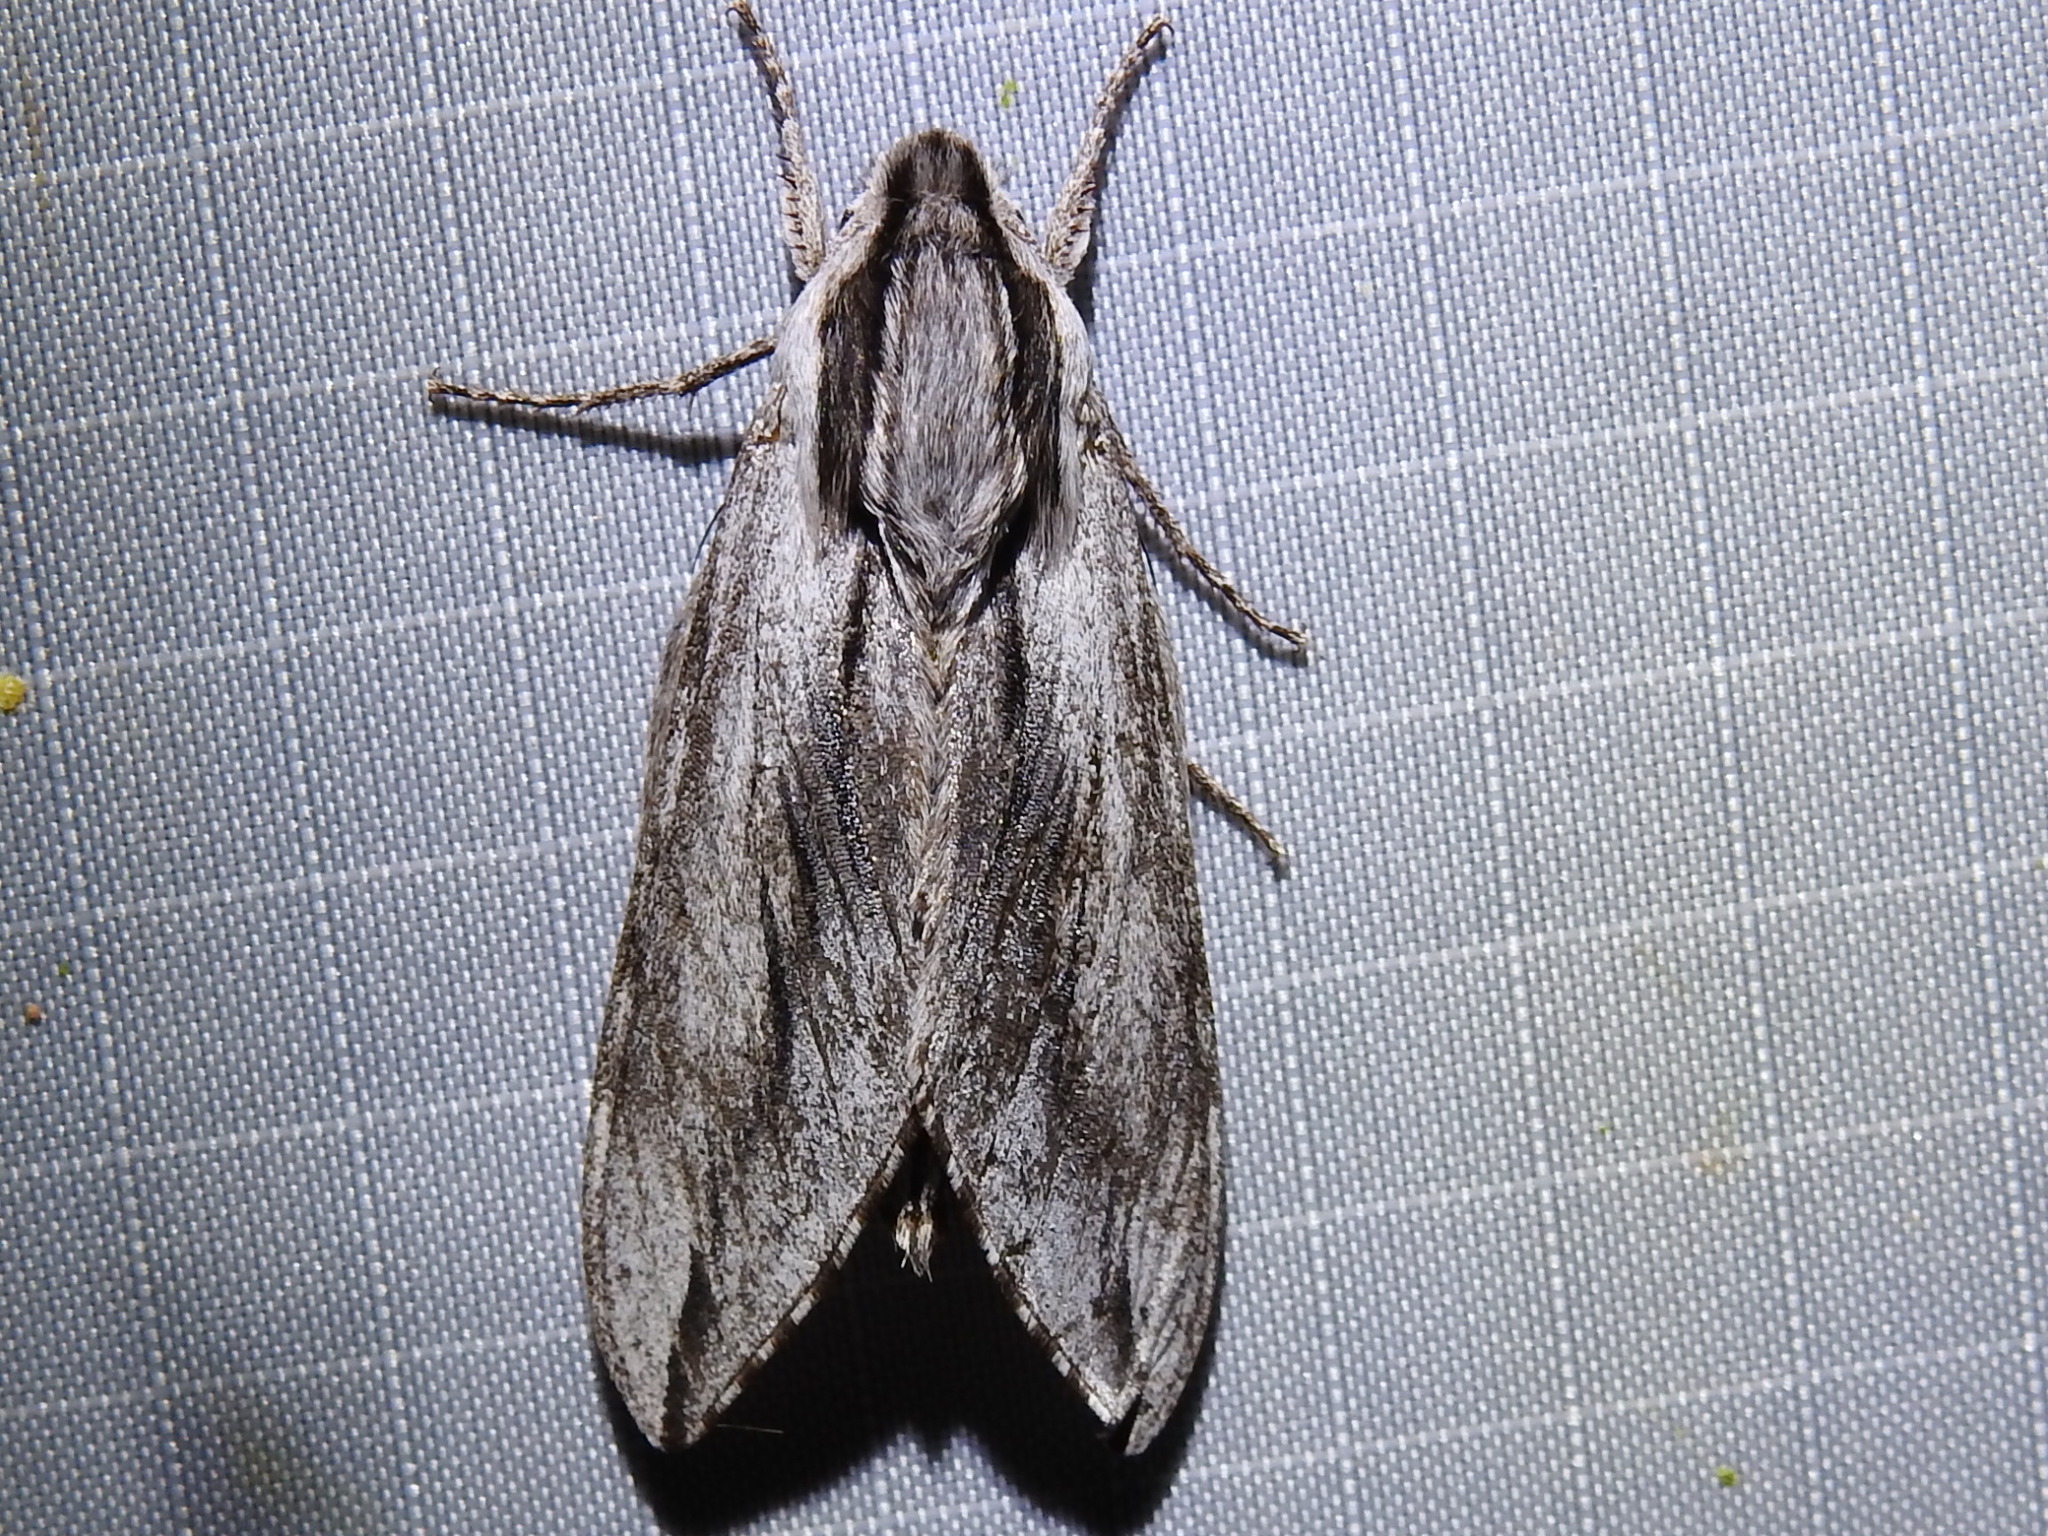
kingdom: Animalia
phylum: Arthropoda
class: Insecta
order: Lepidoptera
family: Sphingidae
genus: Sphinx
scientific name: Sphinx dollii
